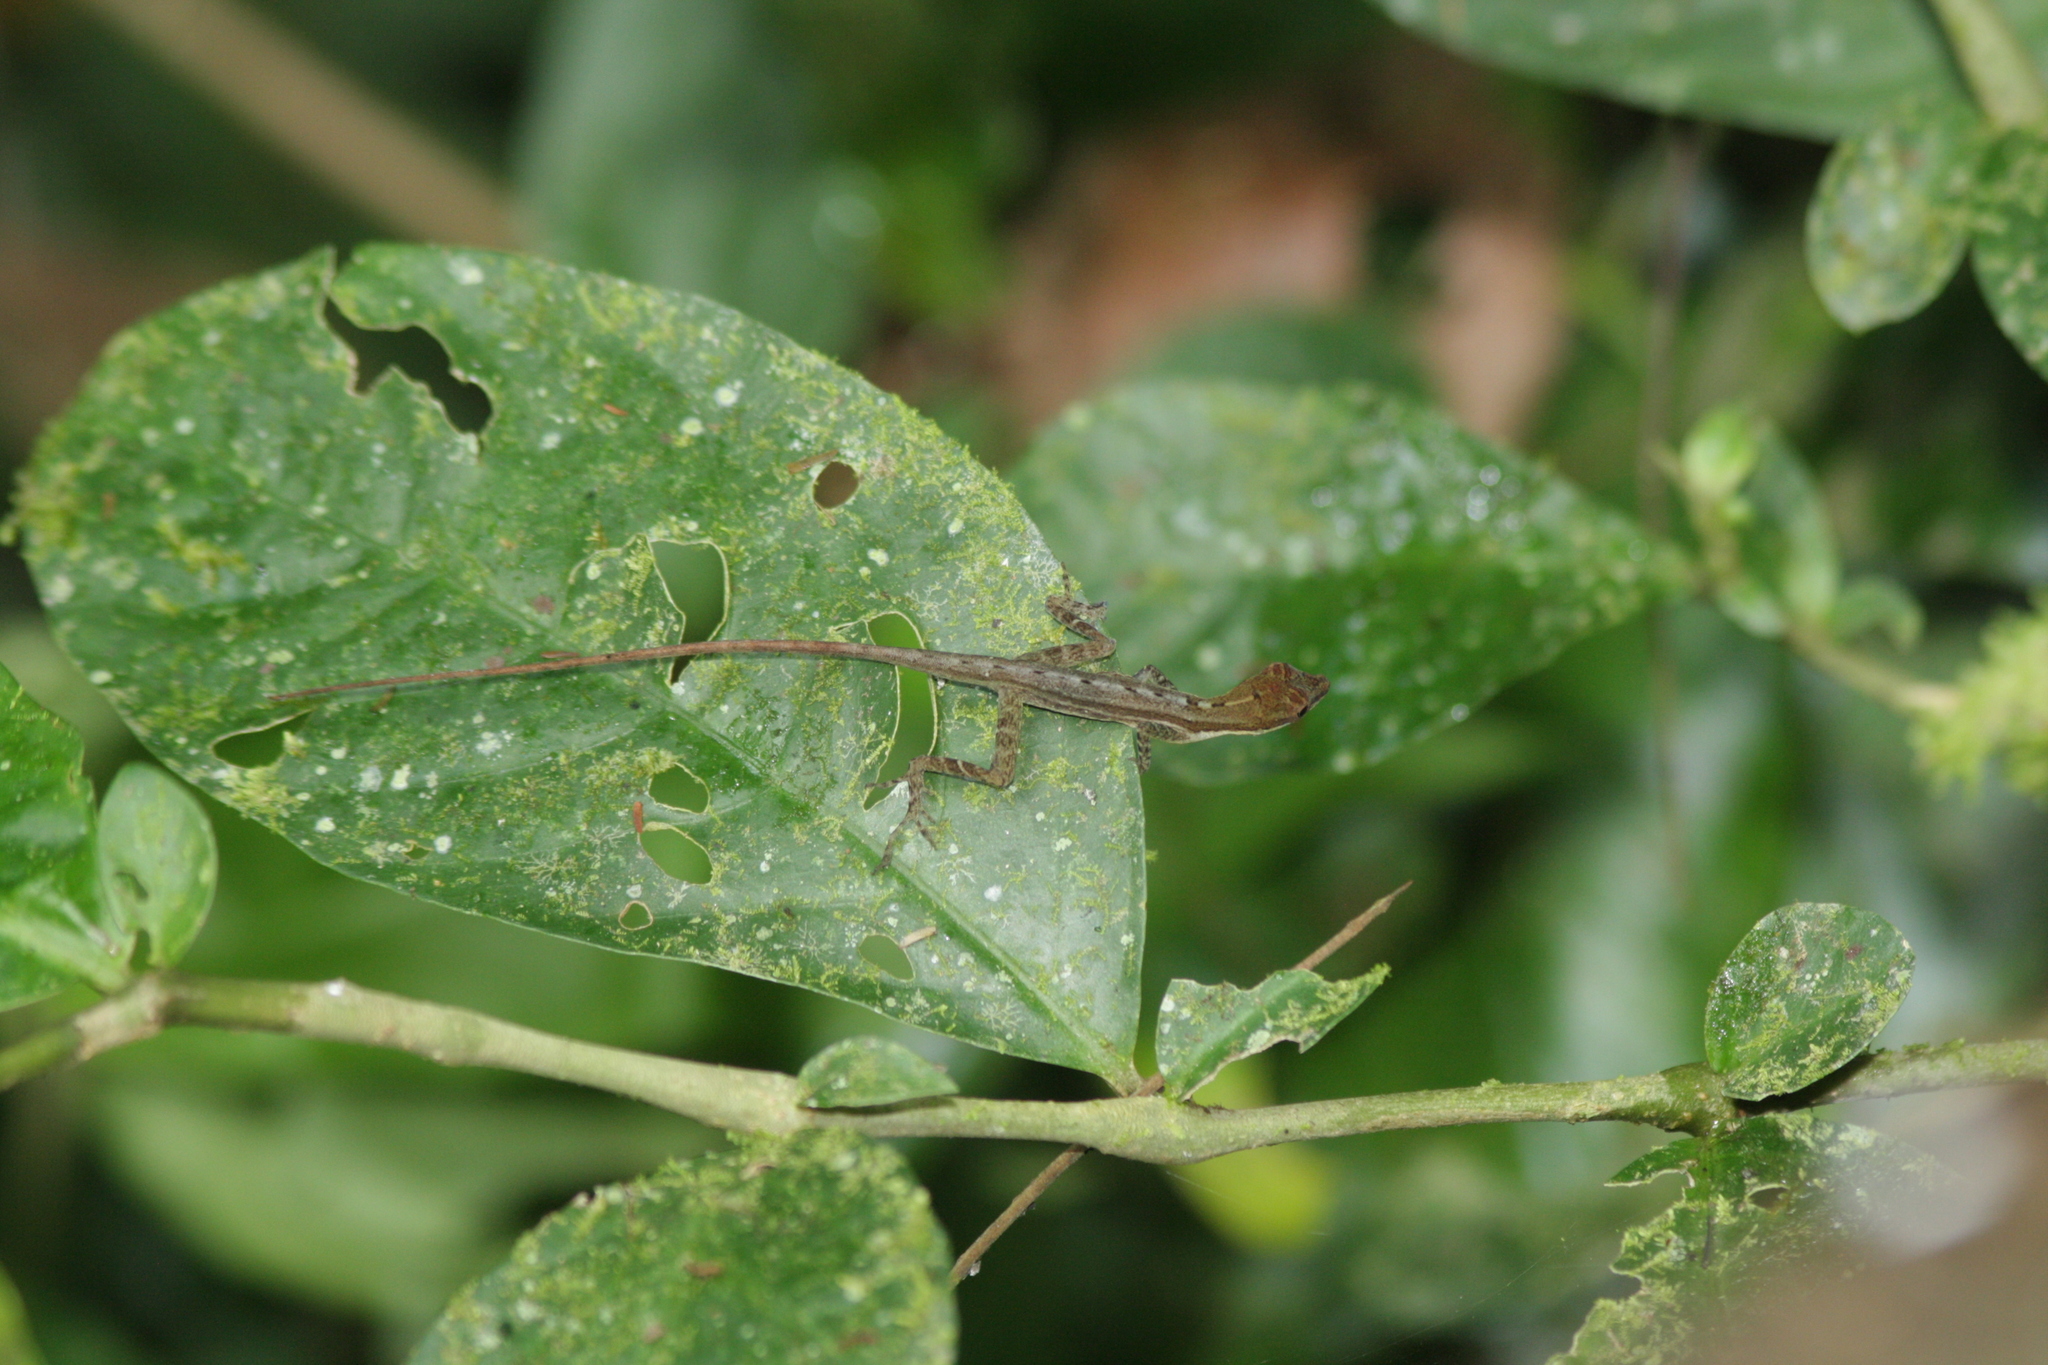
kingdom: Animalia
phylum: Chordata
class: Squamata
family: Dactyloidae
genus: Anolis
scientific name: Anolis limifrons
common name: Border anole
